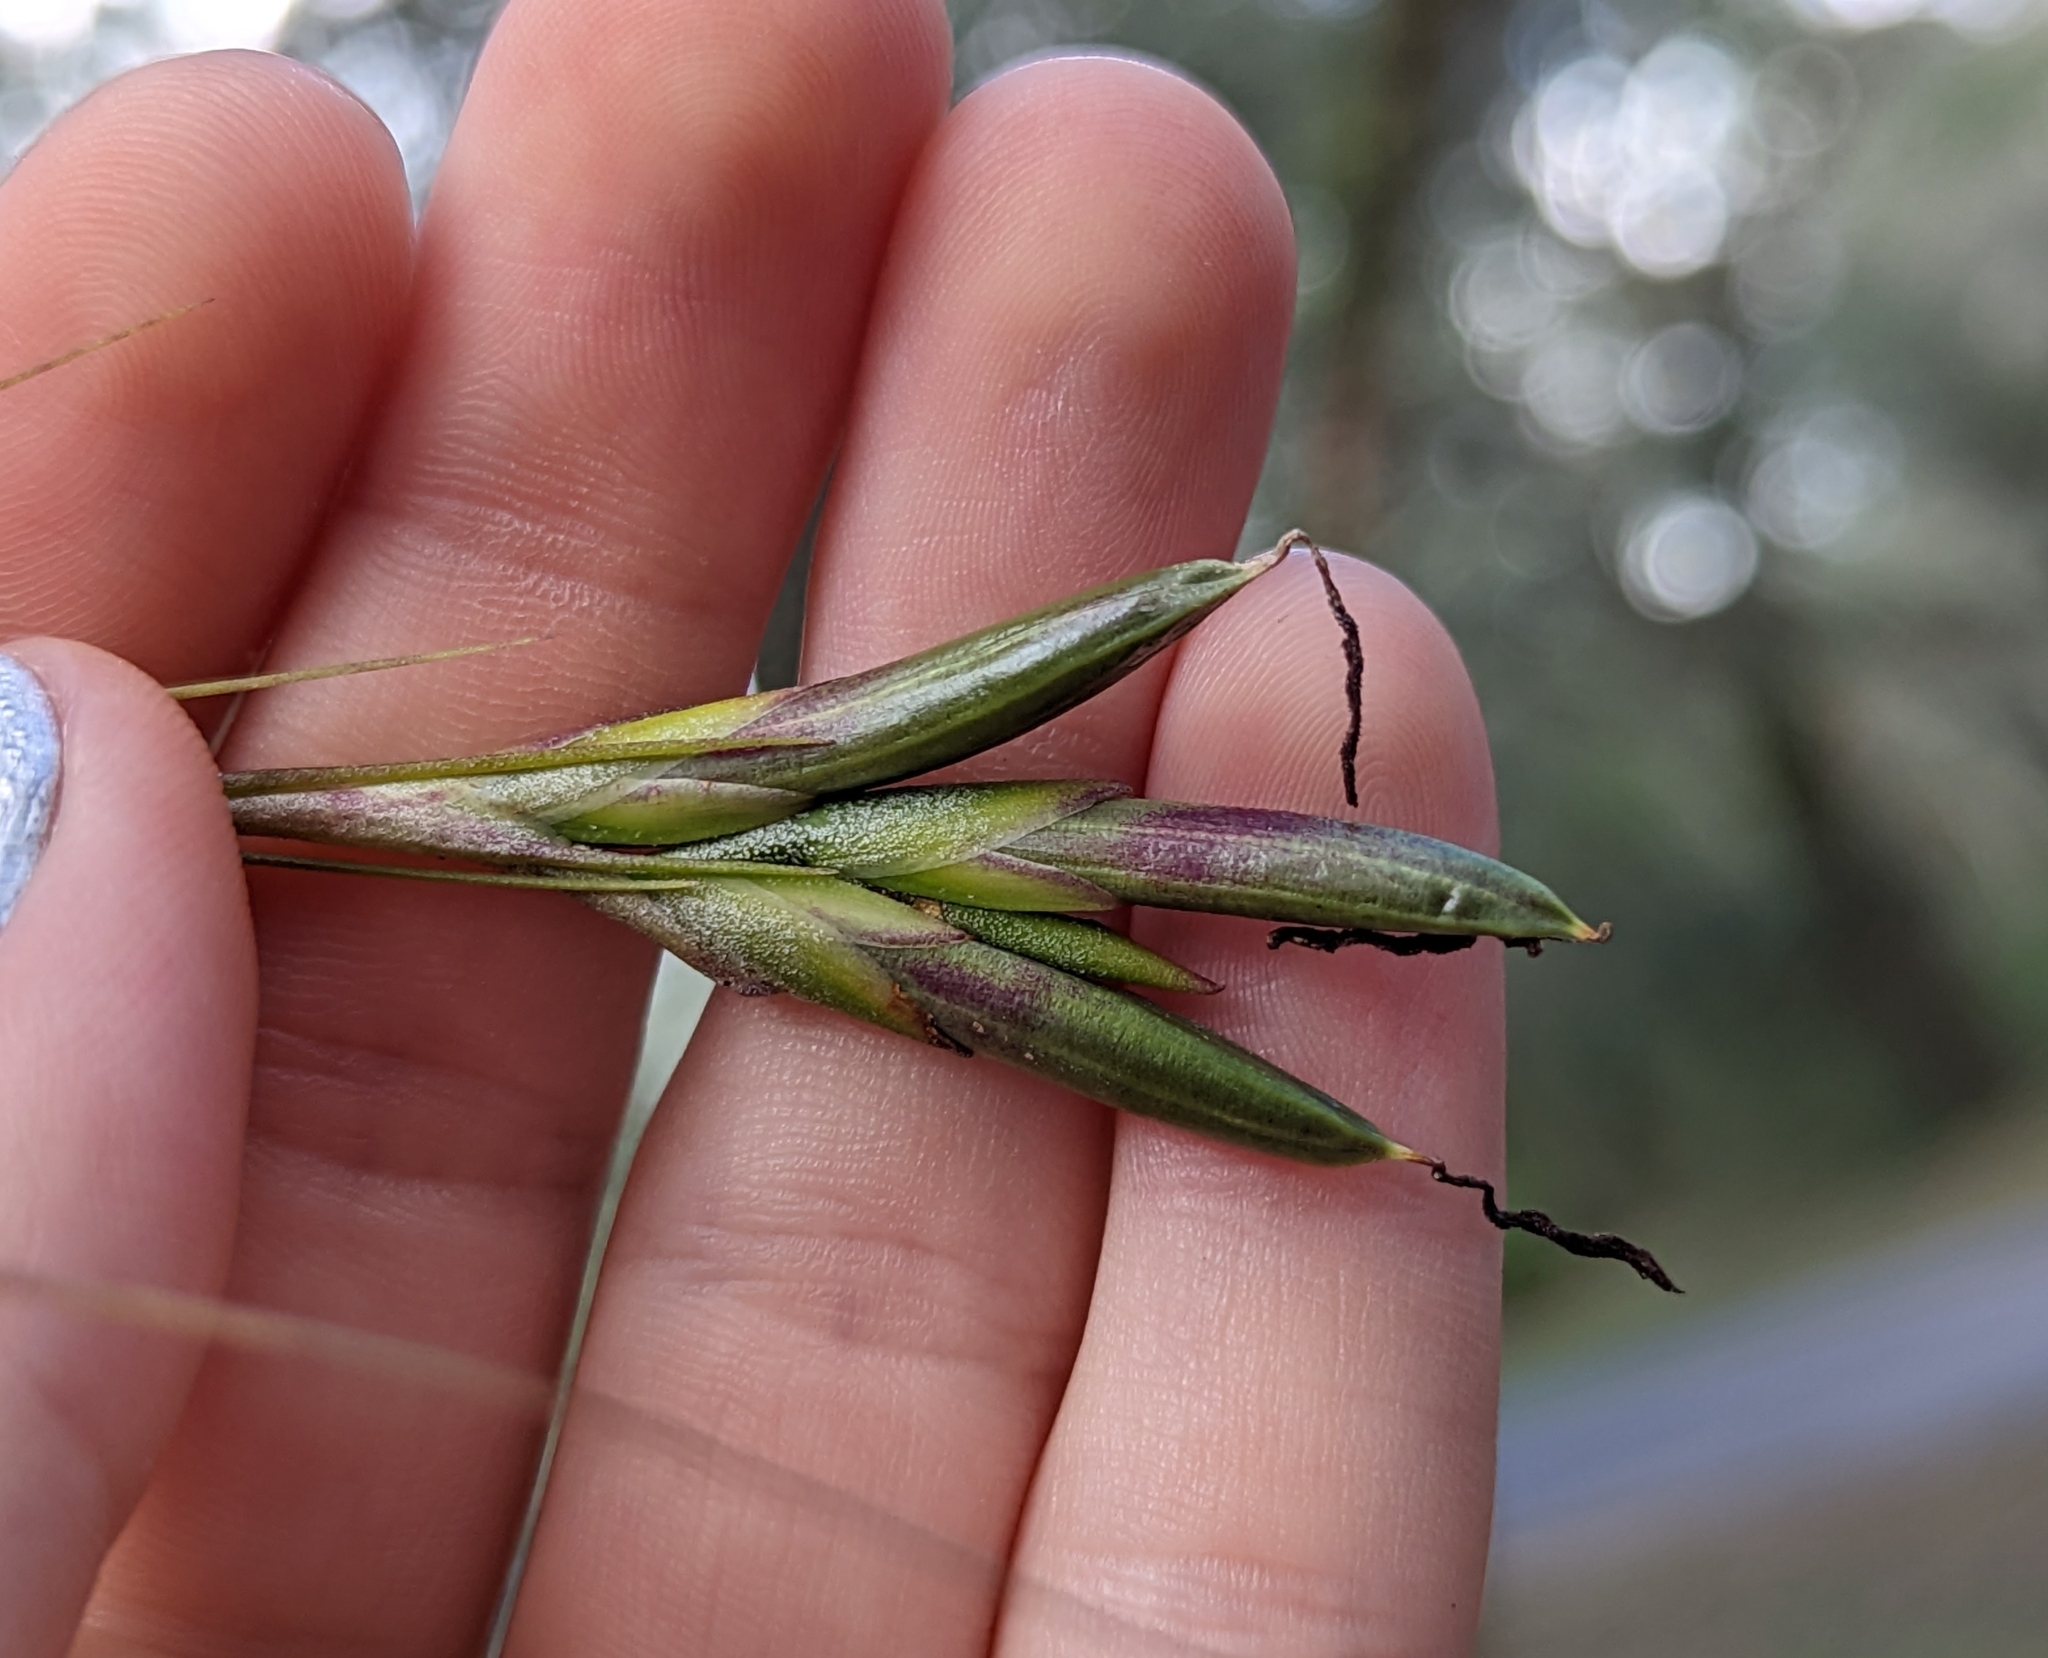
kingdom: Plantae
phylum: Tracheophyta
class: Liliopsida
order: Poales
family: Bromeliaceae
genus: Tillandsia
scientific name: Tillandsia setacea
